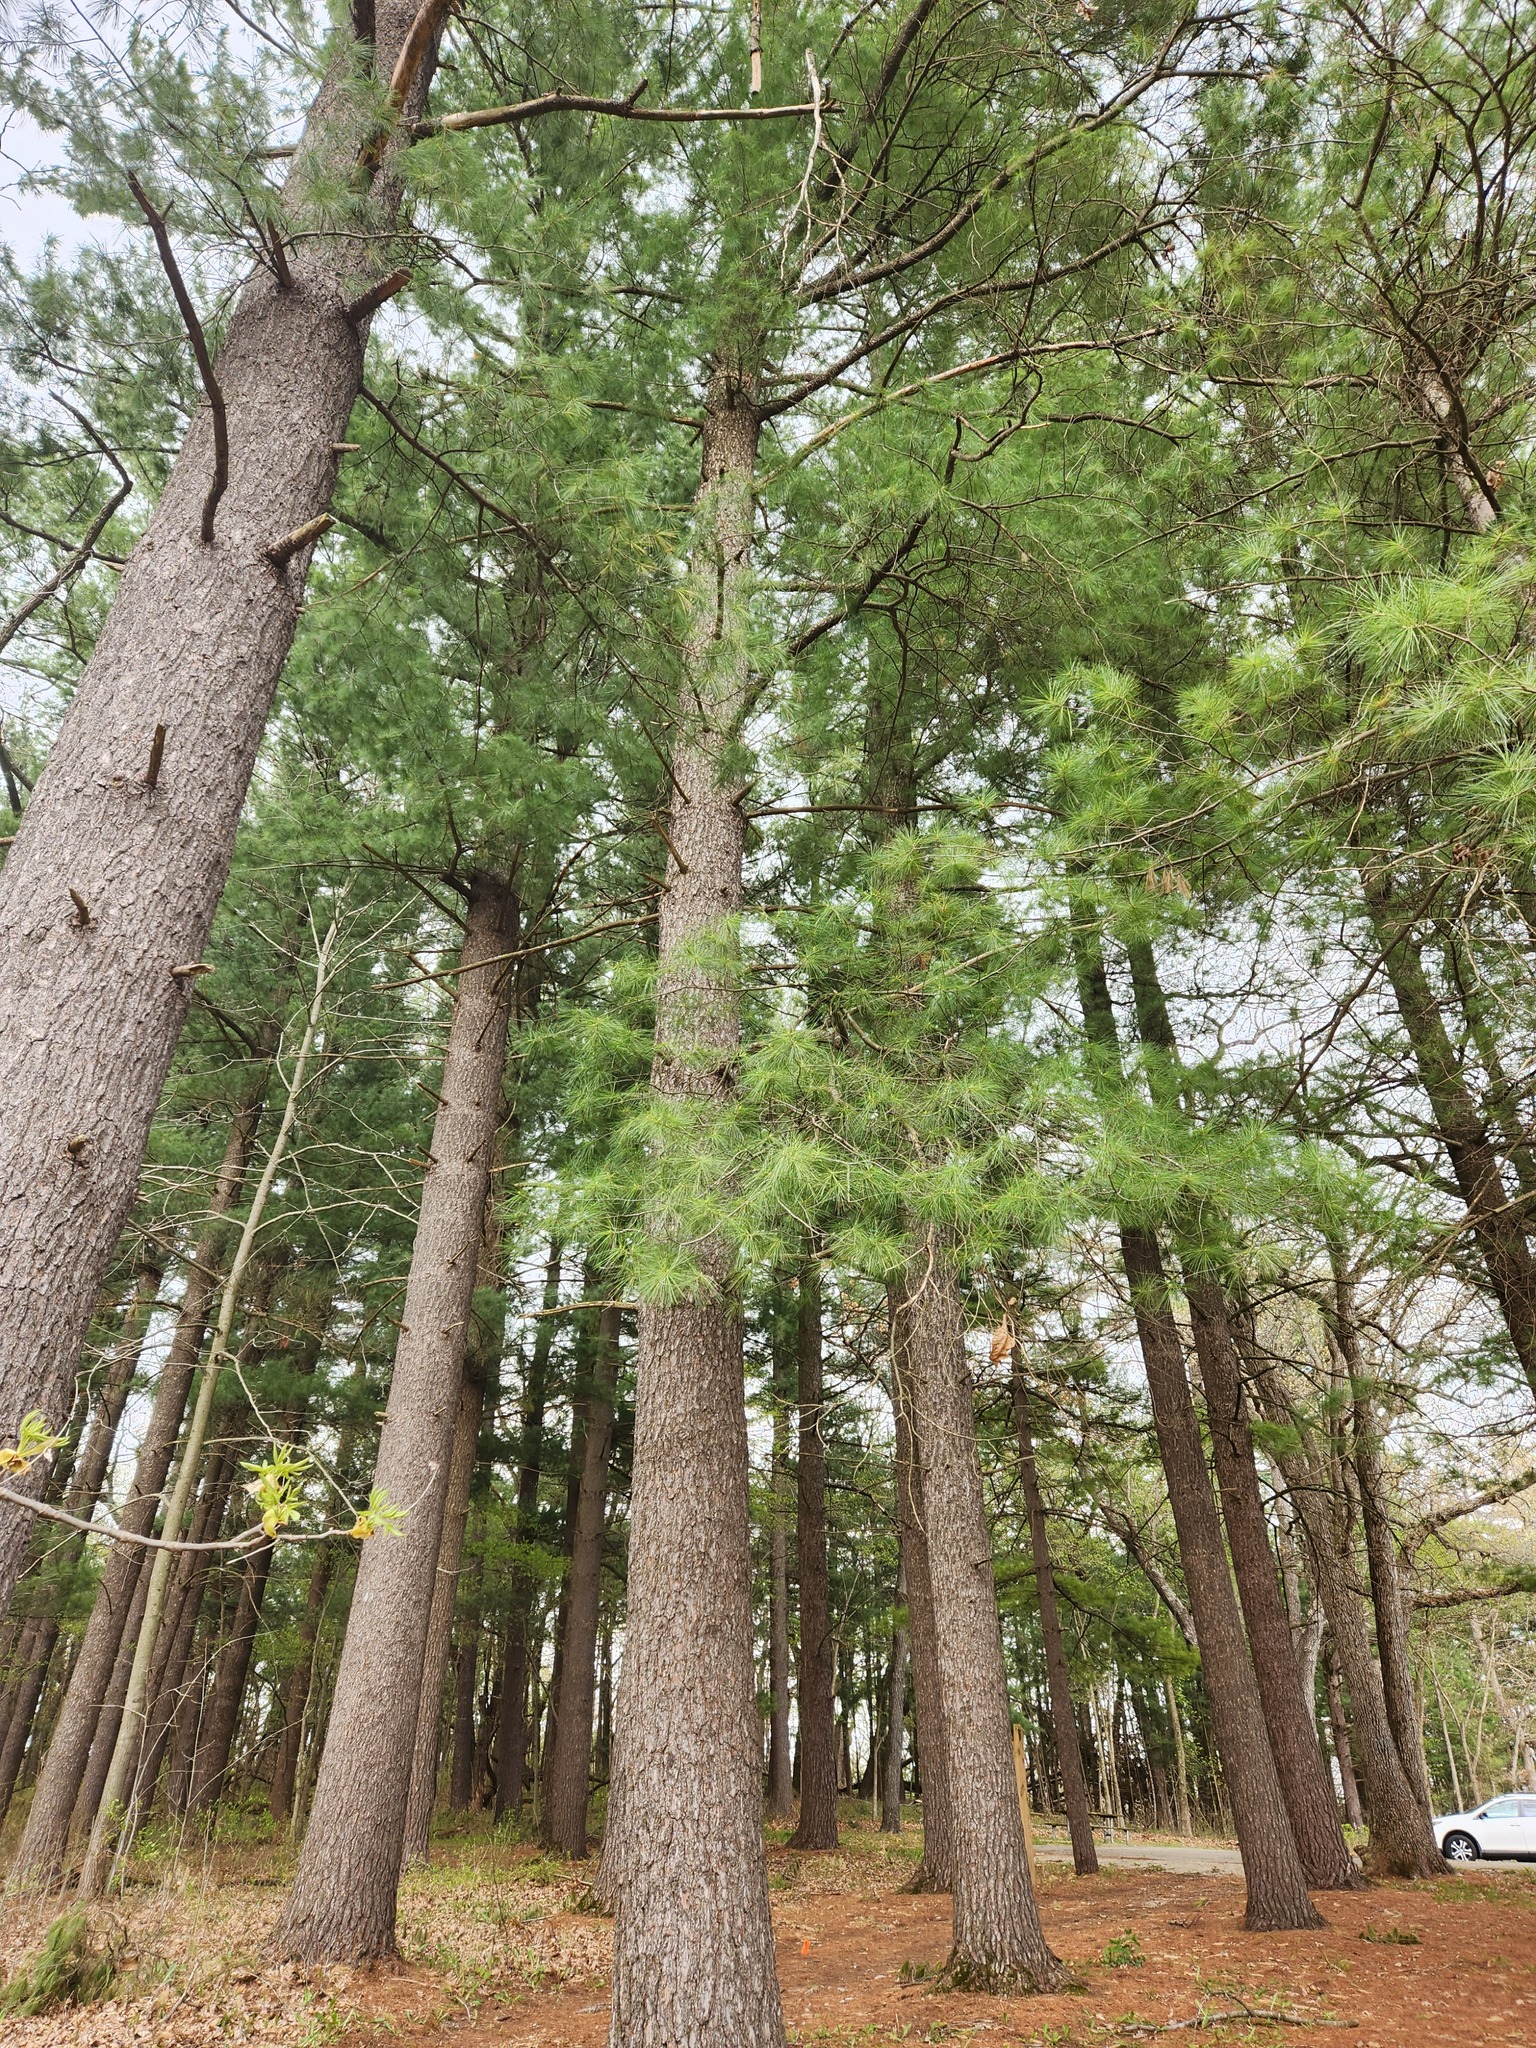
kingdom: Plantae
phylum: Tracheophyta
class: Pinopsida
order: Pinales
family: Pinaceae
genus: Pinus
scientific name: Pinus strobus
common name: Weymouth pine
